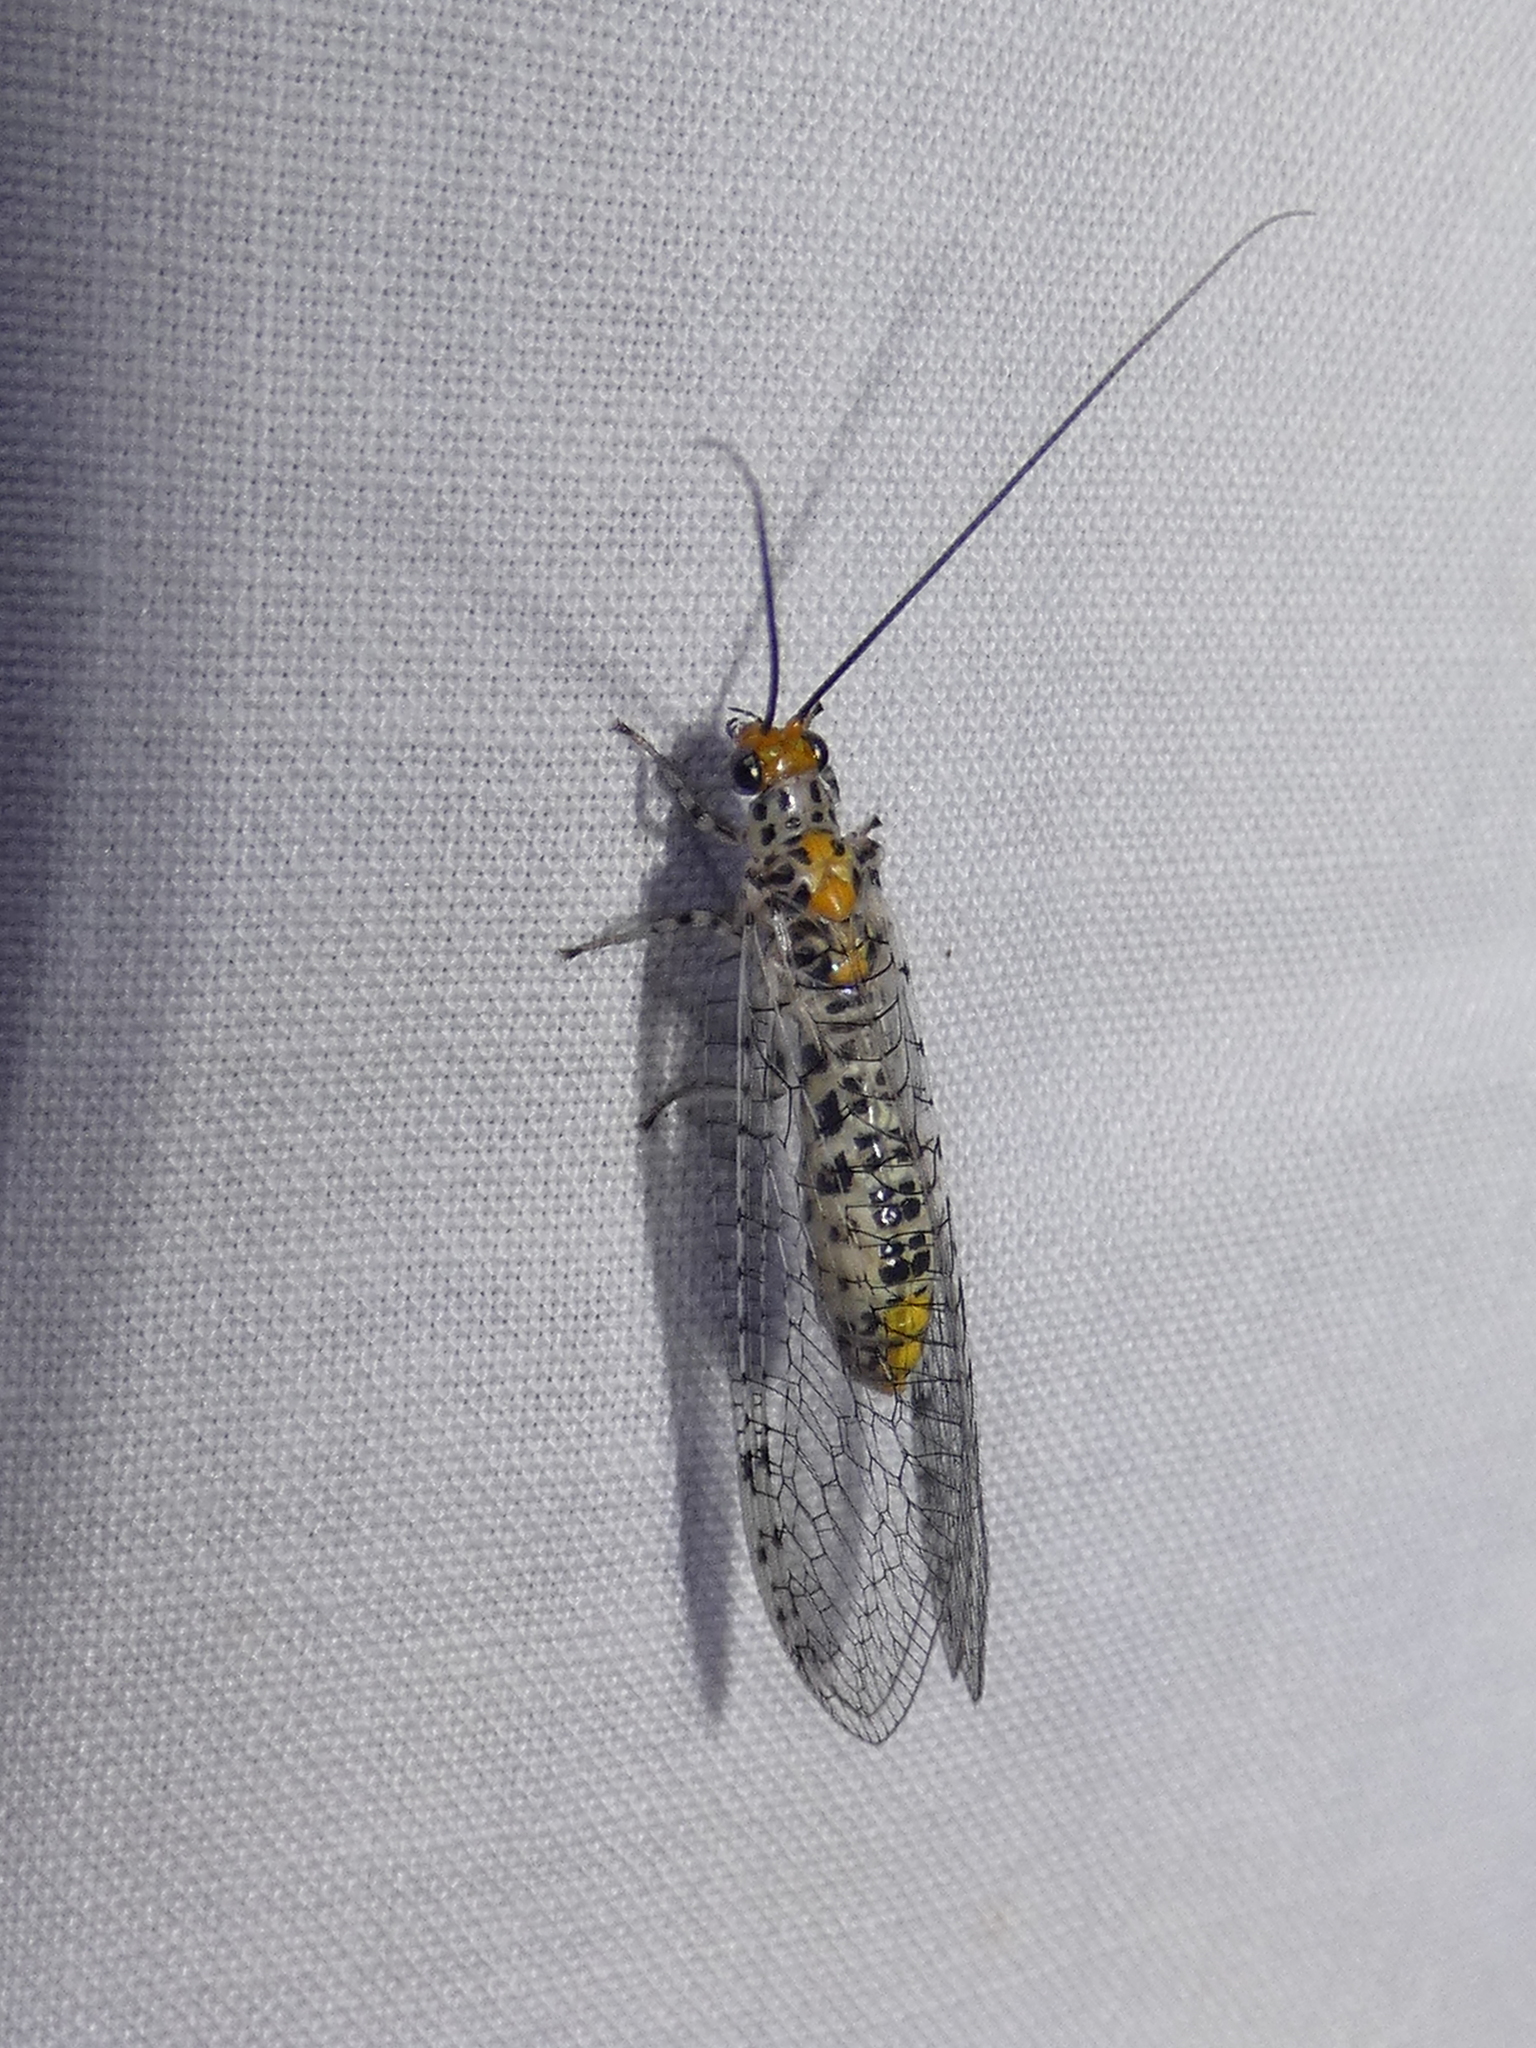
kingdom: Animalia
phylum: Arthropoda
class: Insecta
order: Neuroptera
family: Chrysopidae
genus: Abachrysa
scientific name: Abachrysa eureka
